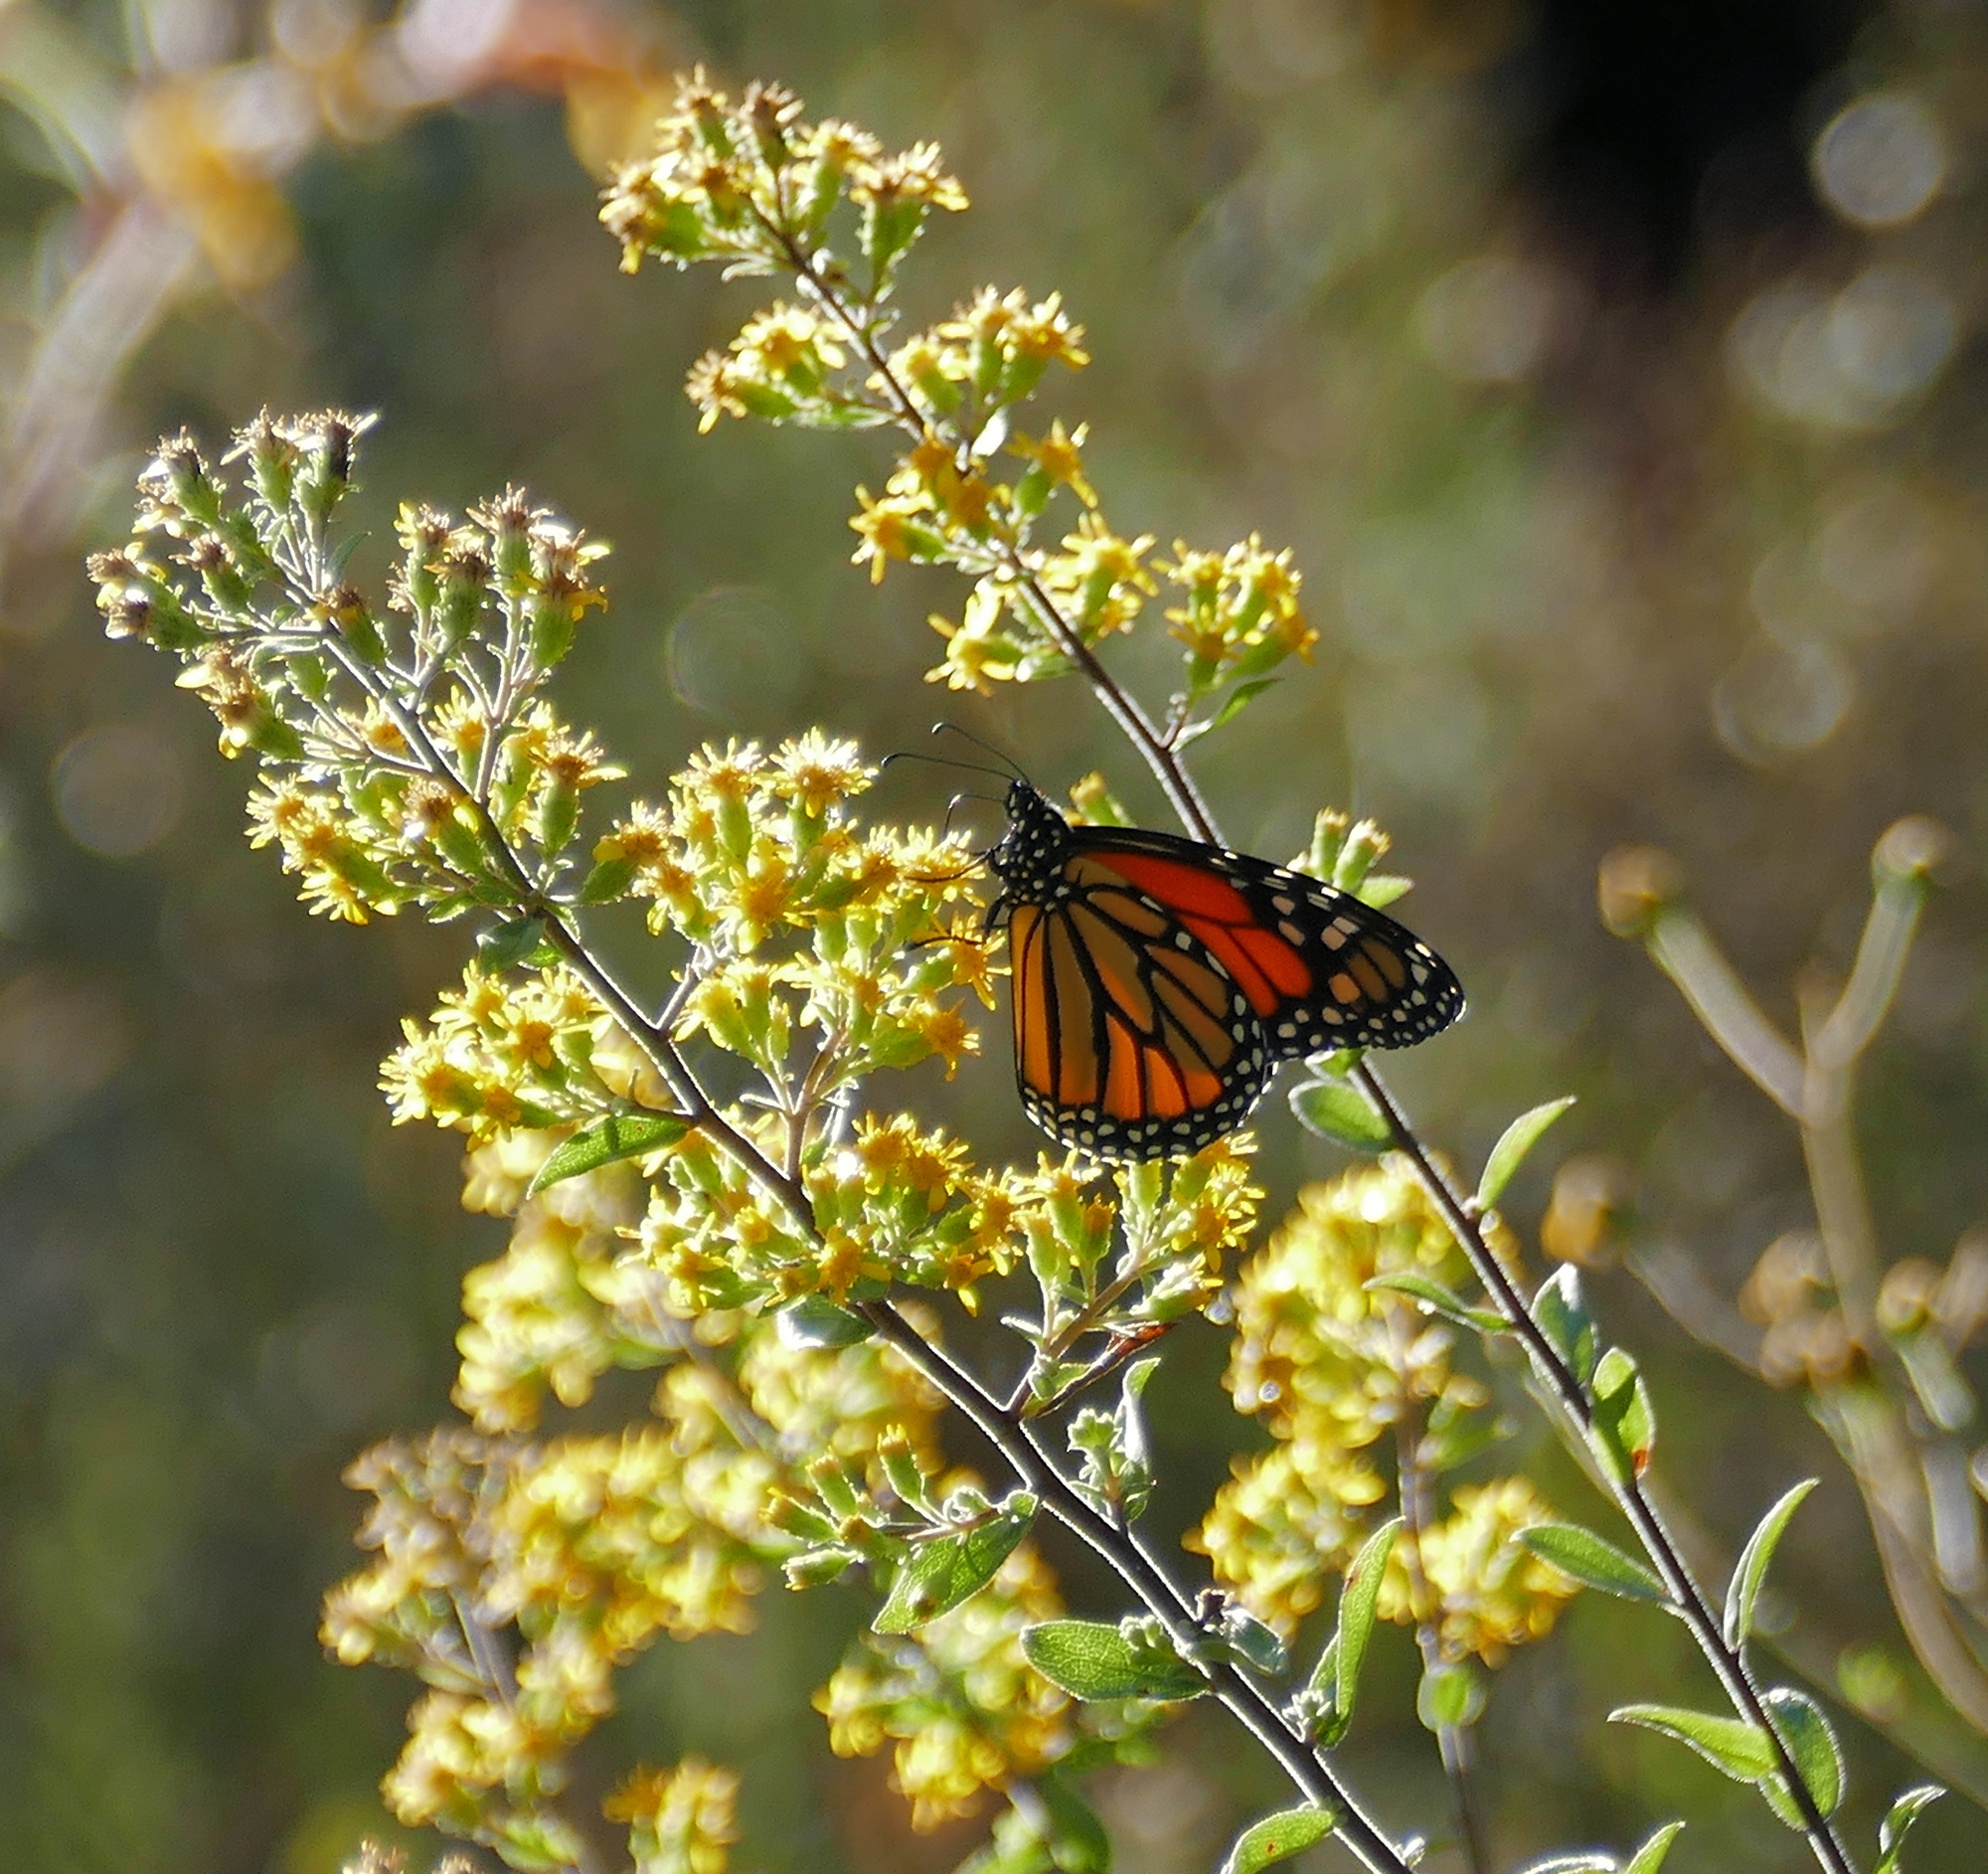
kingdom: Animalia
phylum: Arthropoda
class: Insecta
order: Lepidoptera
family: Nymphalidae
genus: Danaus
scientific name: Danaus plexippus
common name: Monarch
